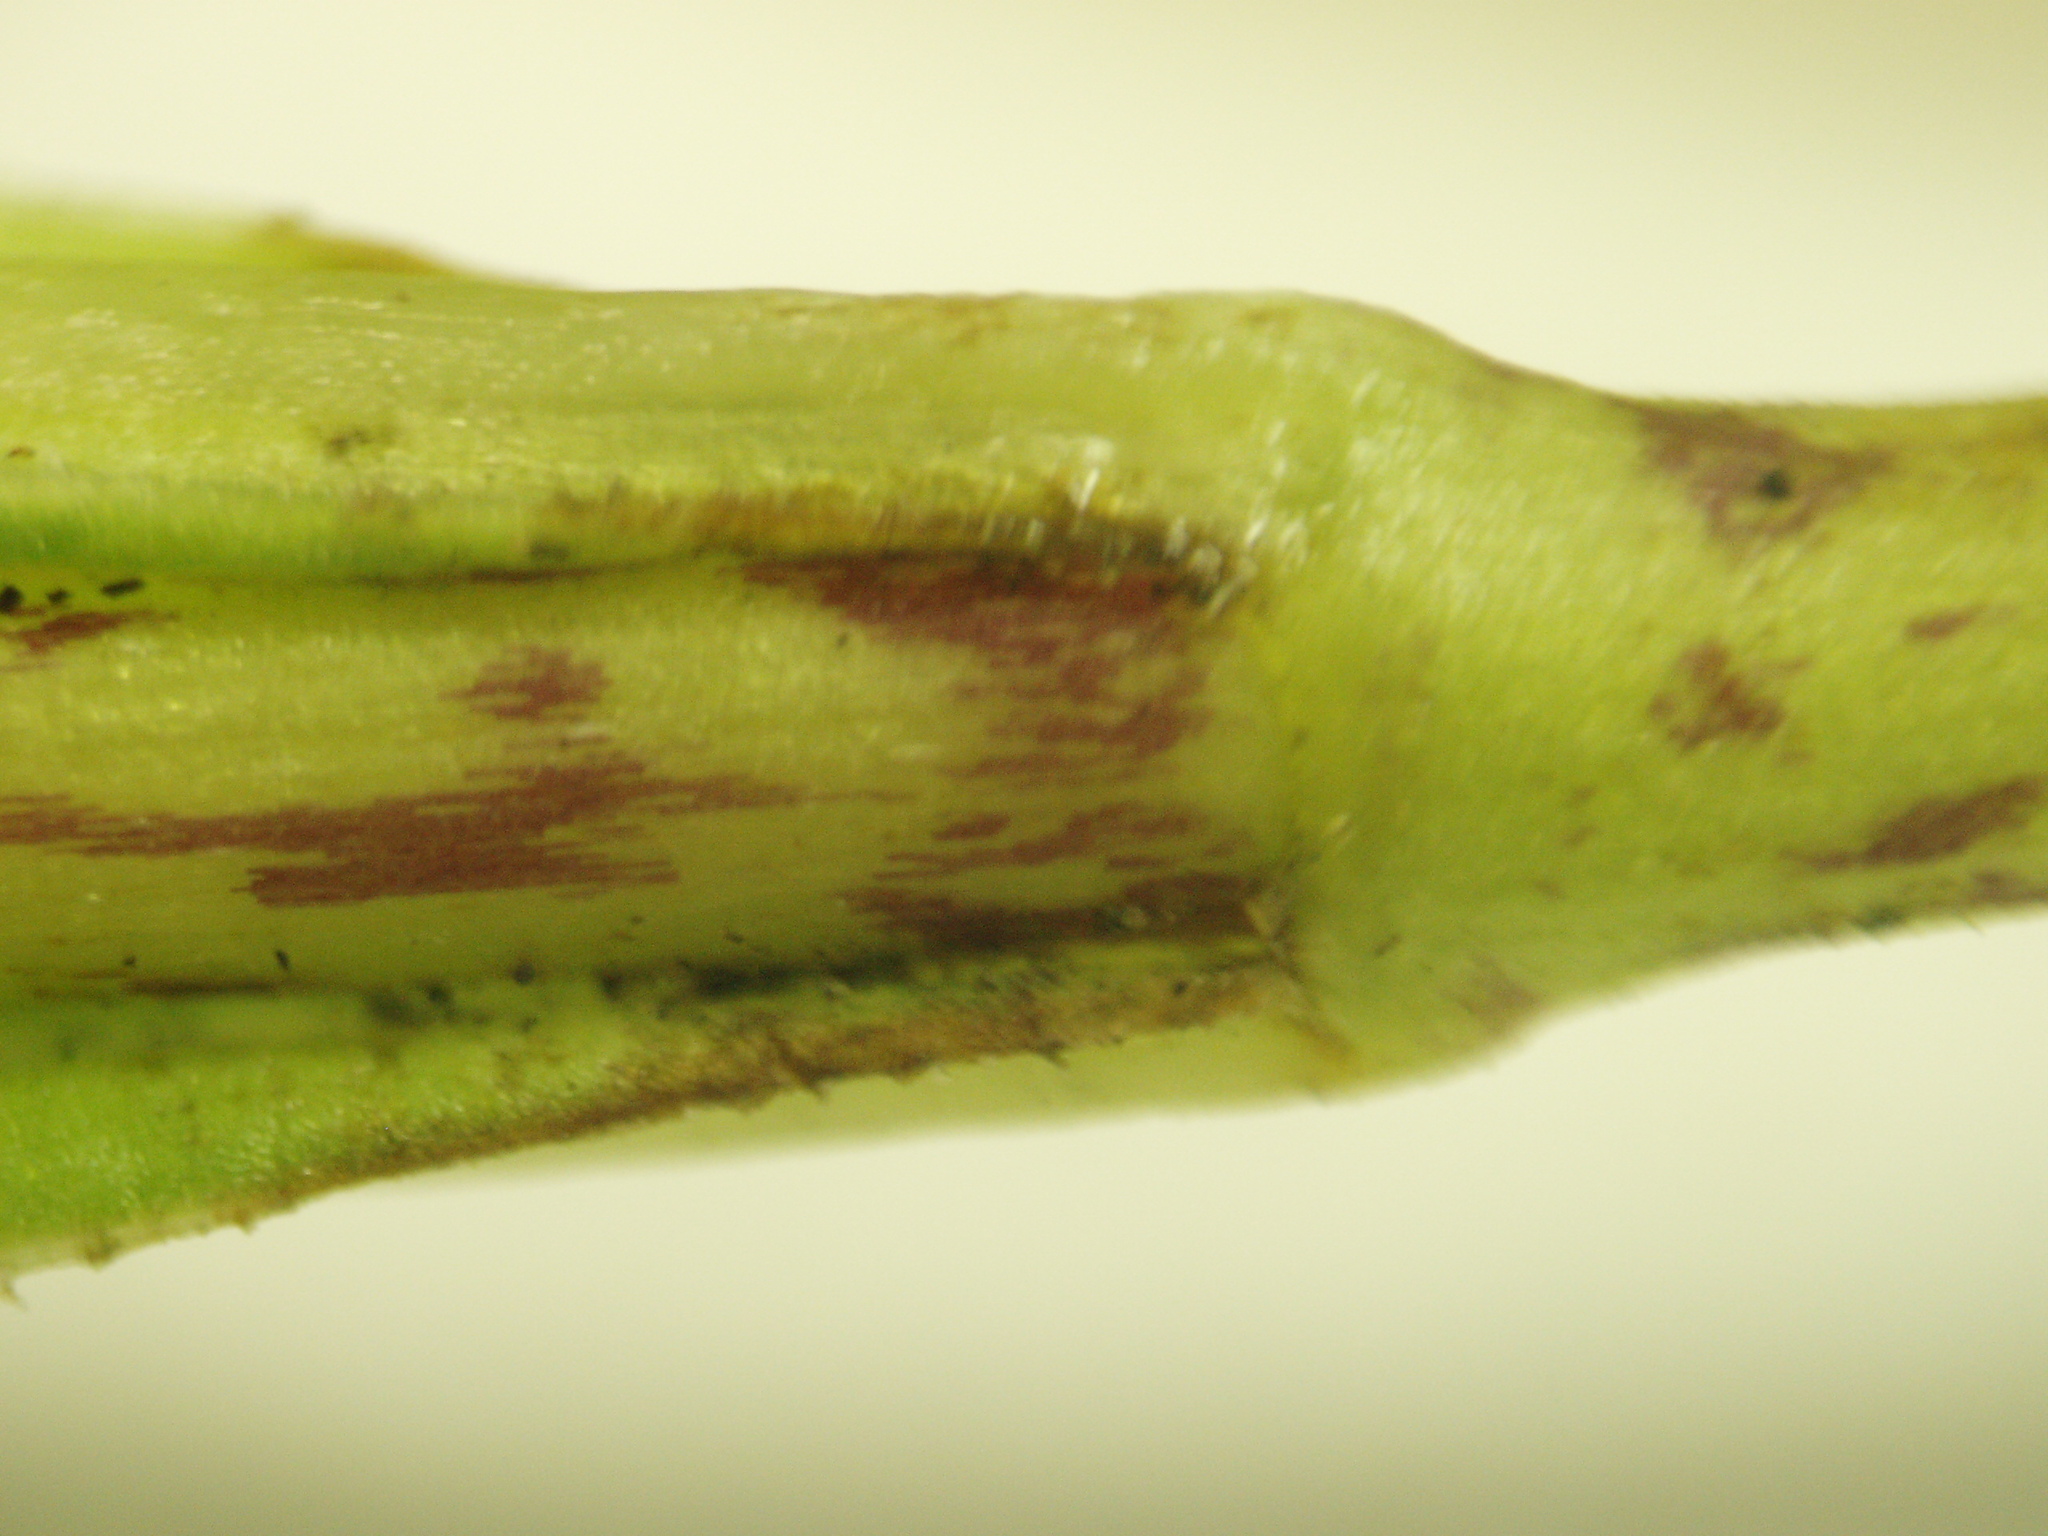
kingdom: Plantae
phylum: Tracheophyta
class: Magnoliopsida
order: Ericales
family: Polemoniaceae
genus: Phlox
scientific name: Phlox maculata
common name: Meadow phlox
